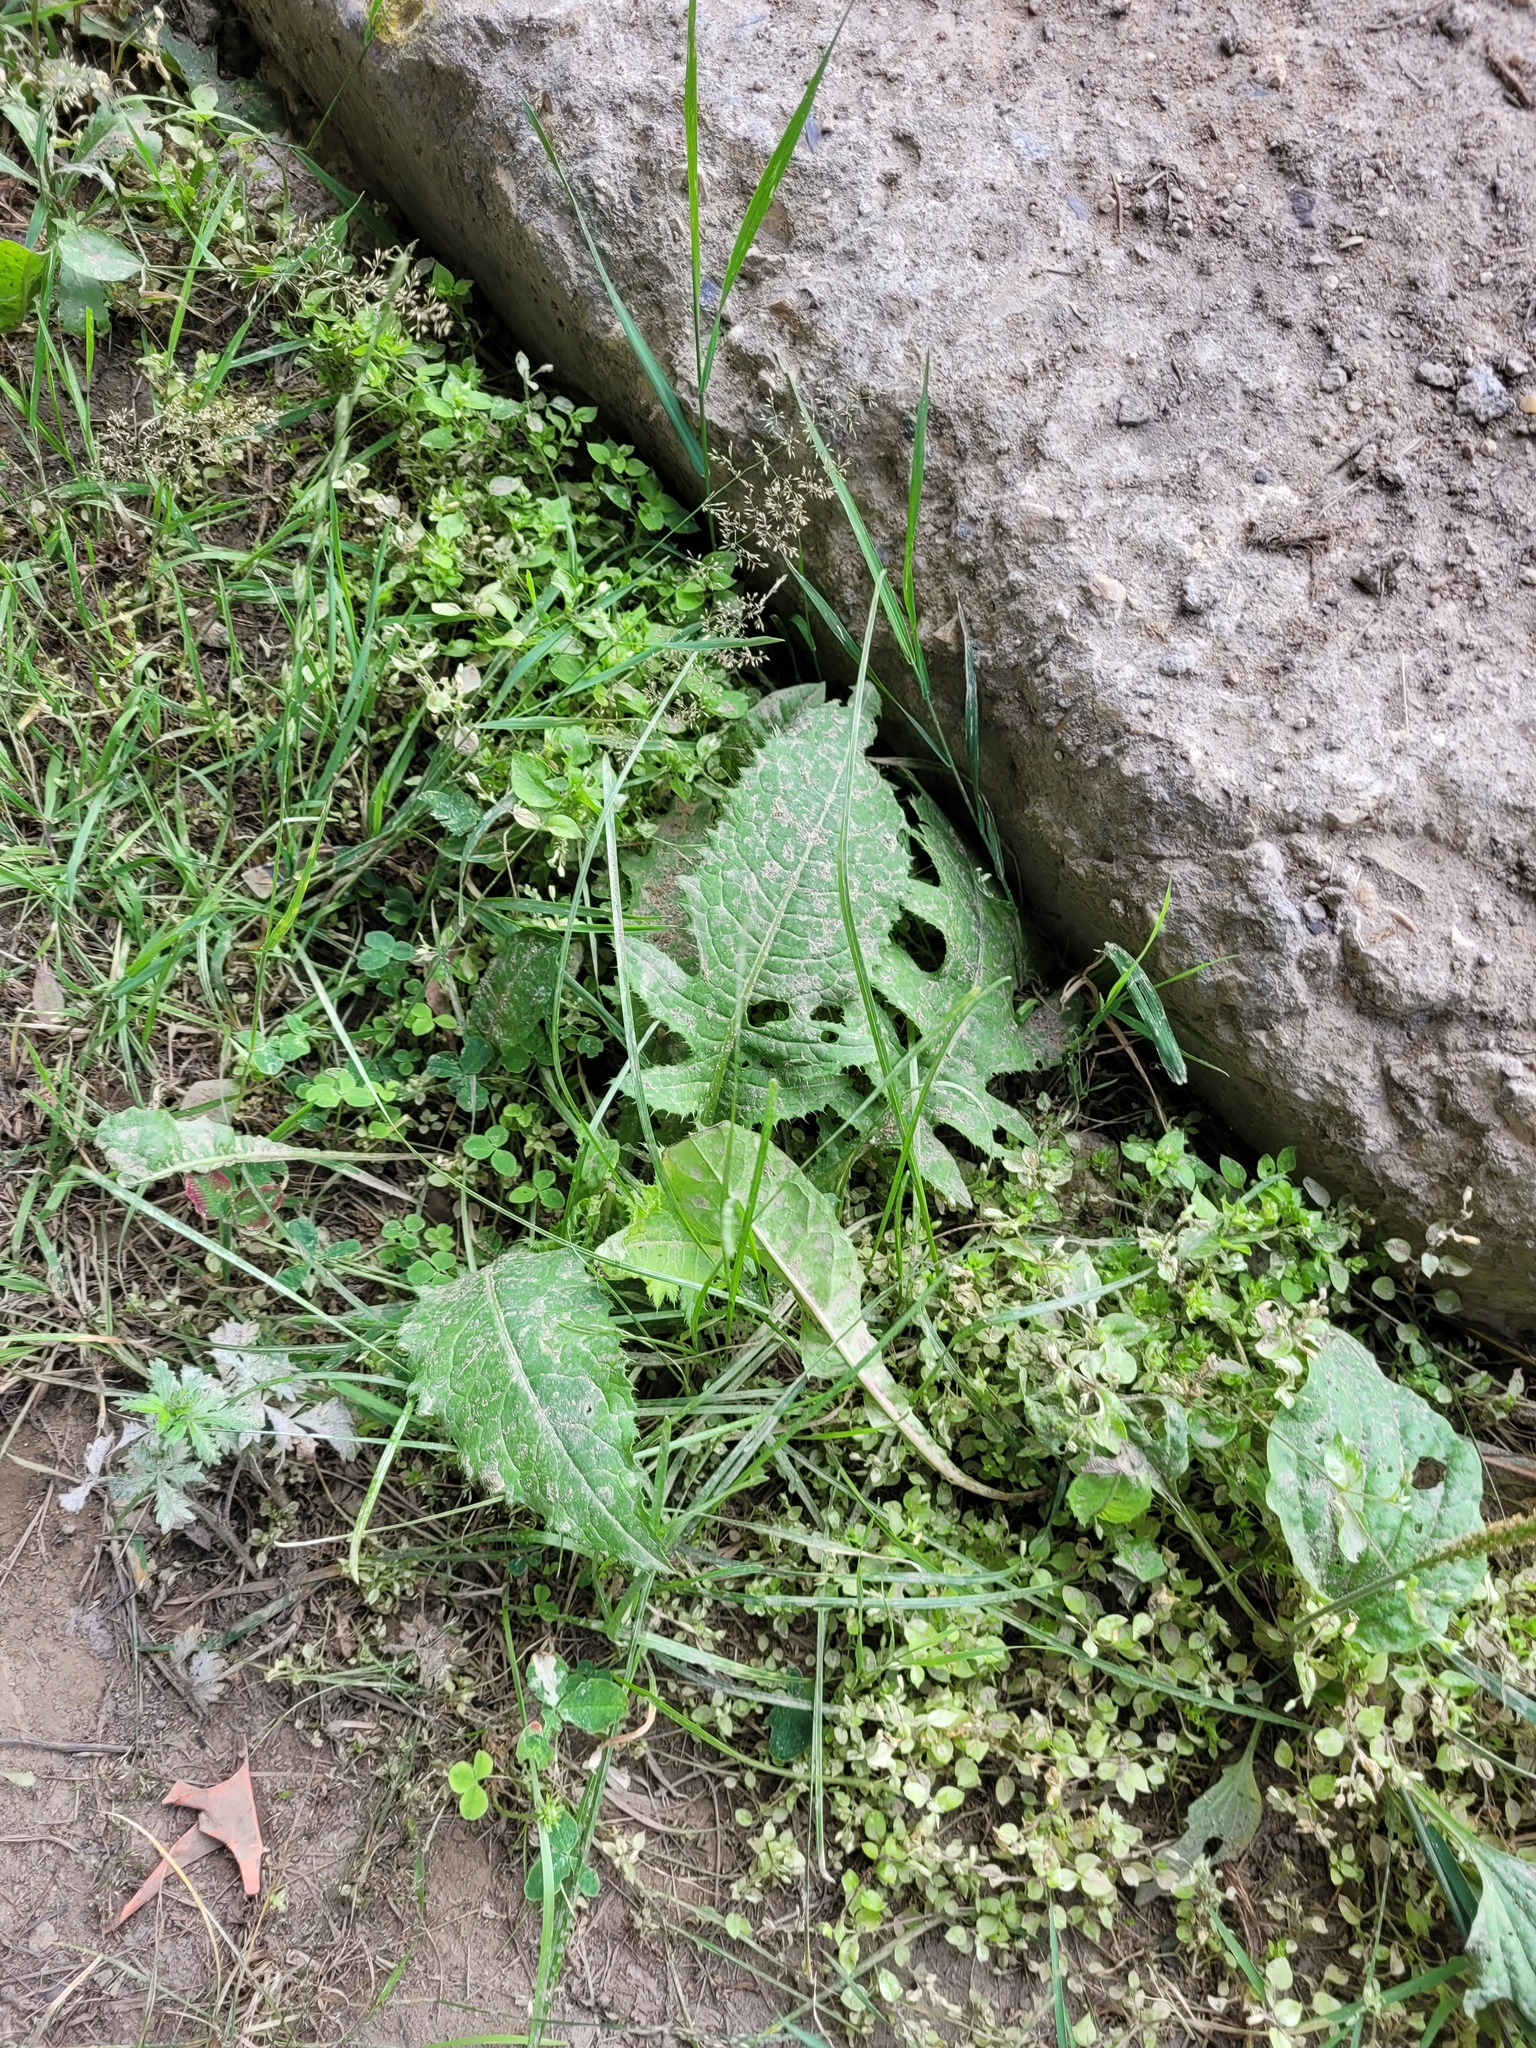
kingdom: Plantae
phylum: Tracheophyta
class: Magnoliopsida
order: Asterales
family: Asteraceae
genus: Cirsium
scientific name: Cirsium oleraceum
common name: Cabbage thistle
